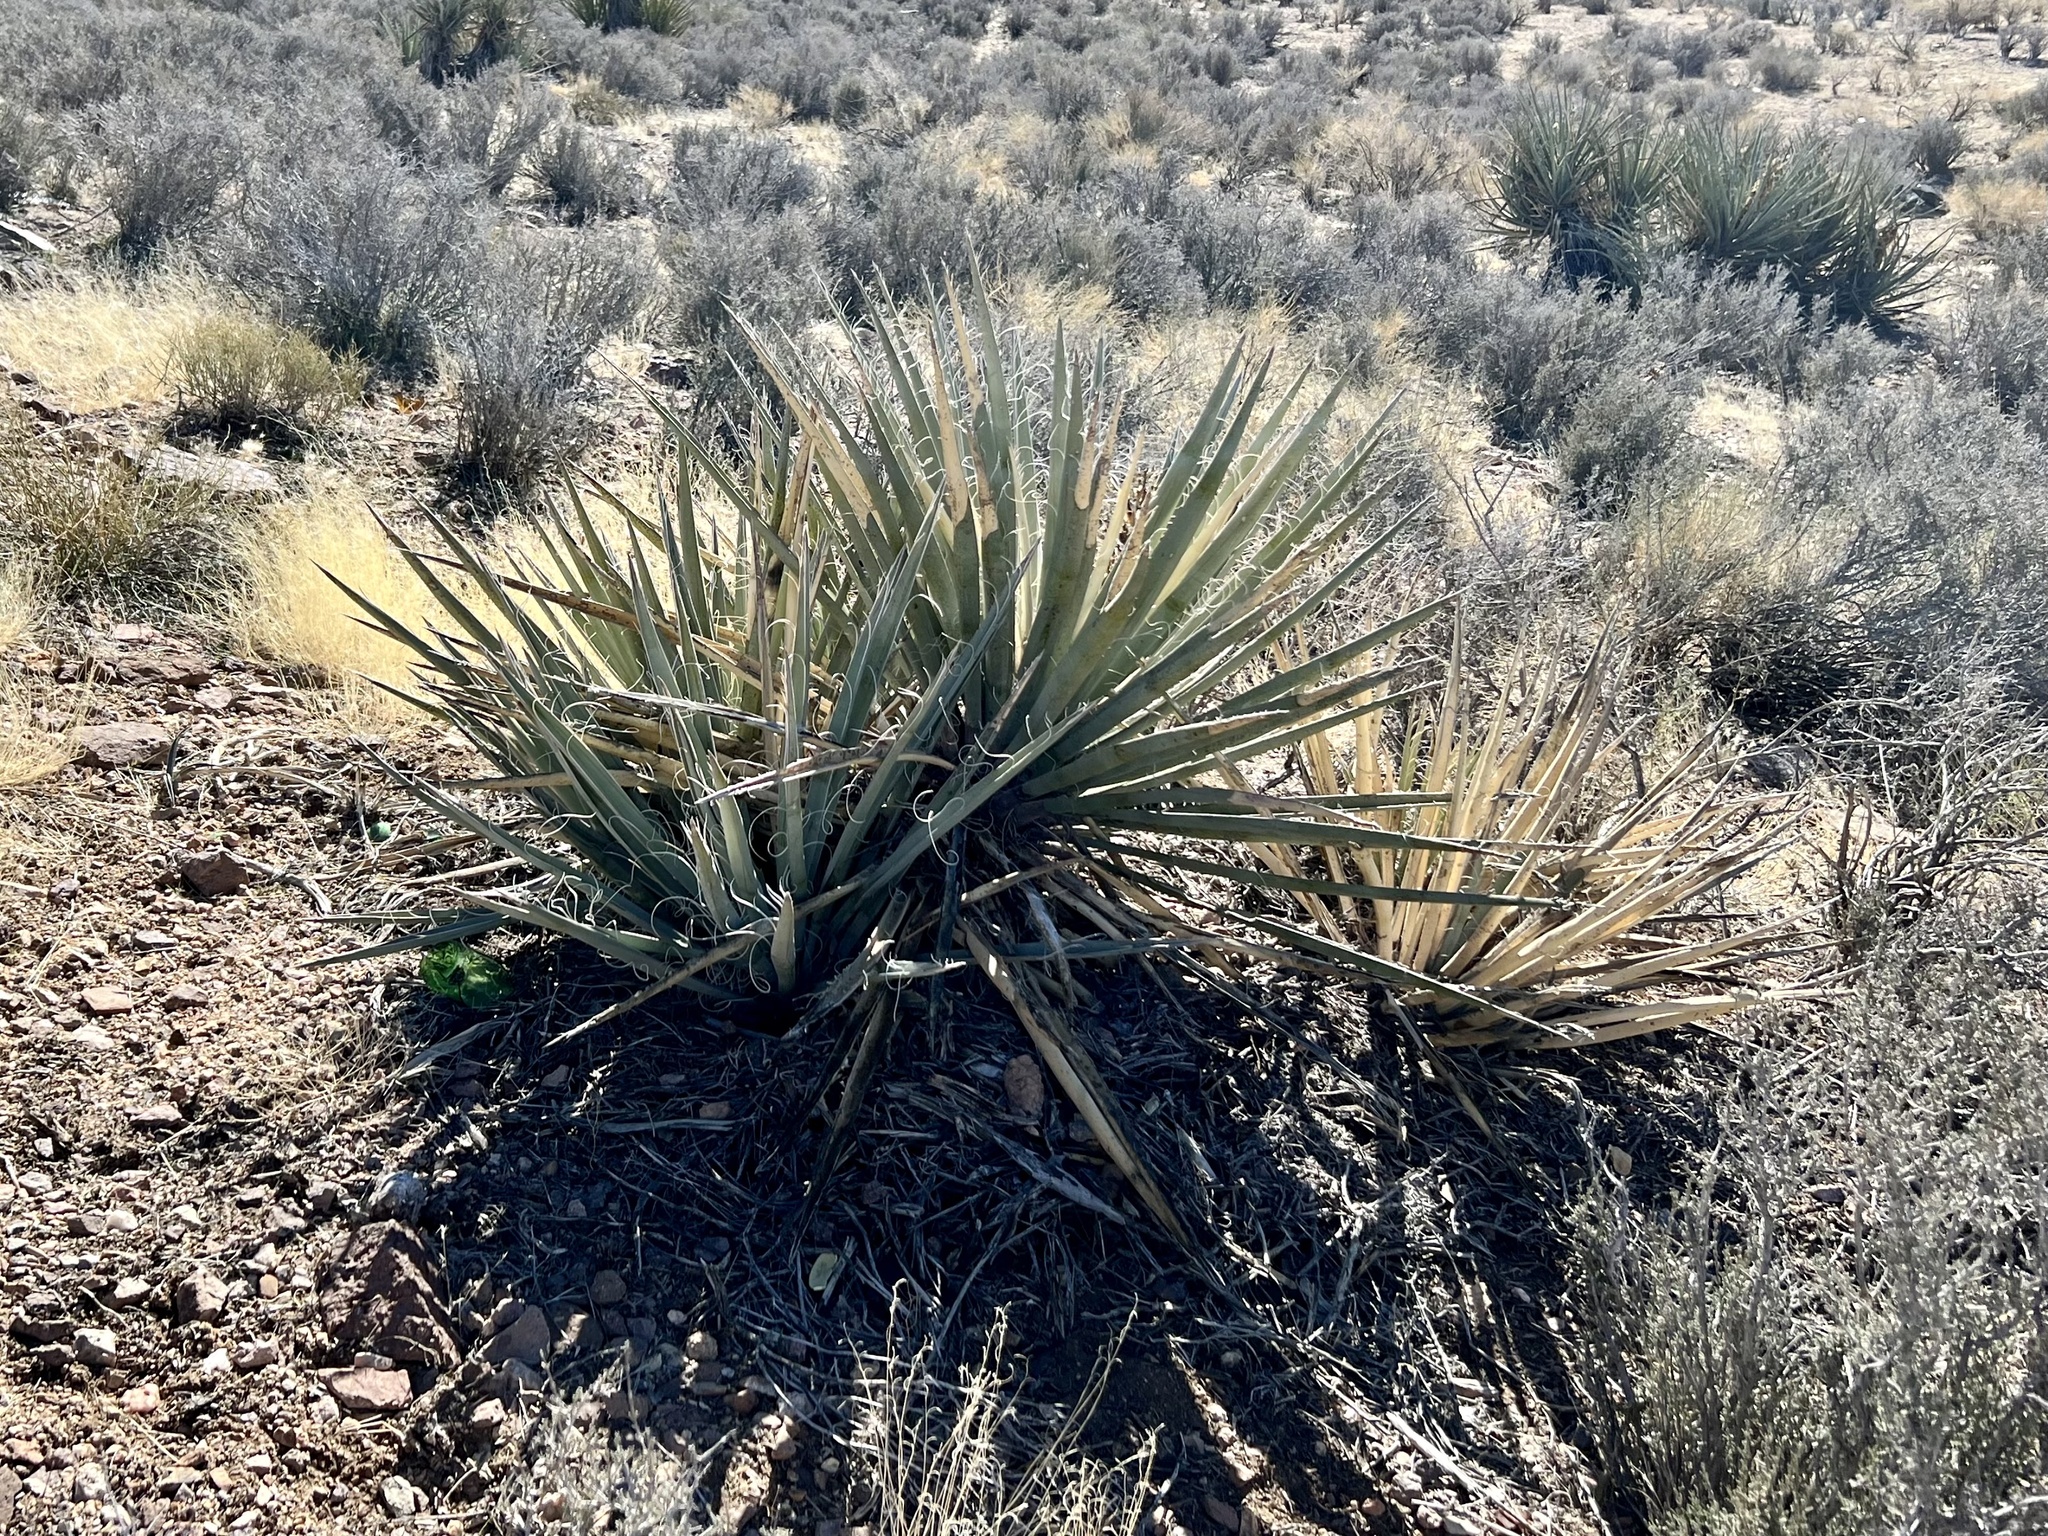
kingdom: Plantae
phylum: Tracheophyta
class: Liliopsida
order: Asparagales
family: Asparagaceae
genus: Yucca
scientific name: Yucca baccata
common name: Banana yucca
